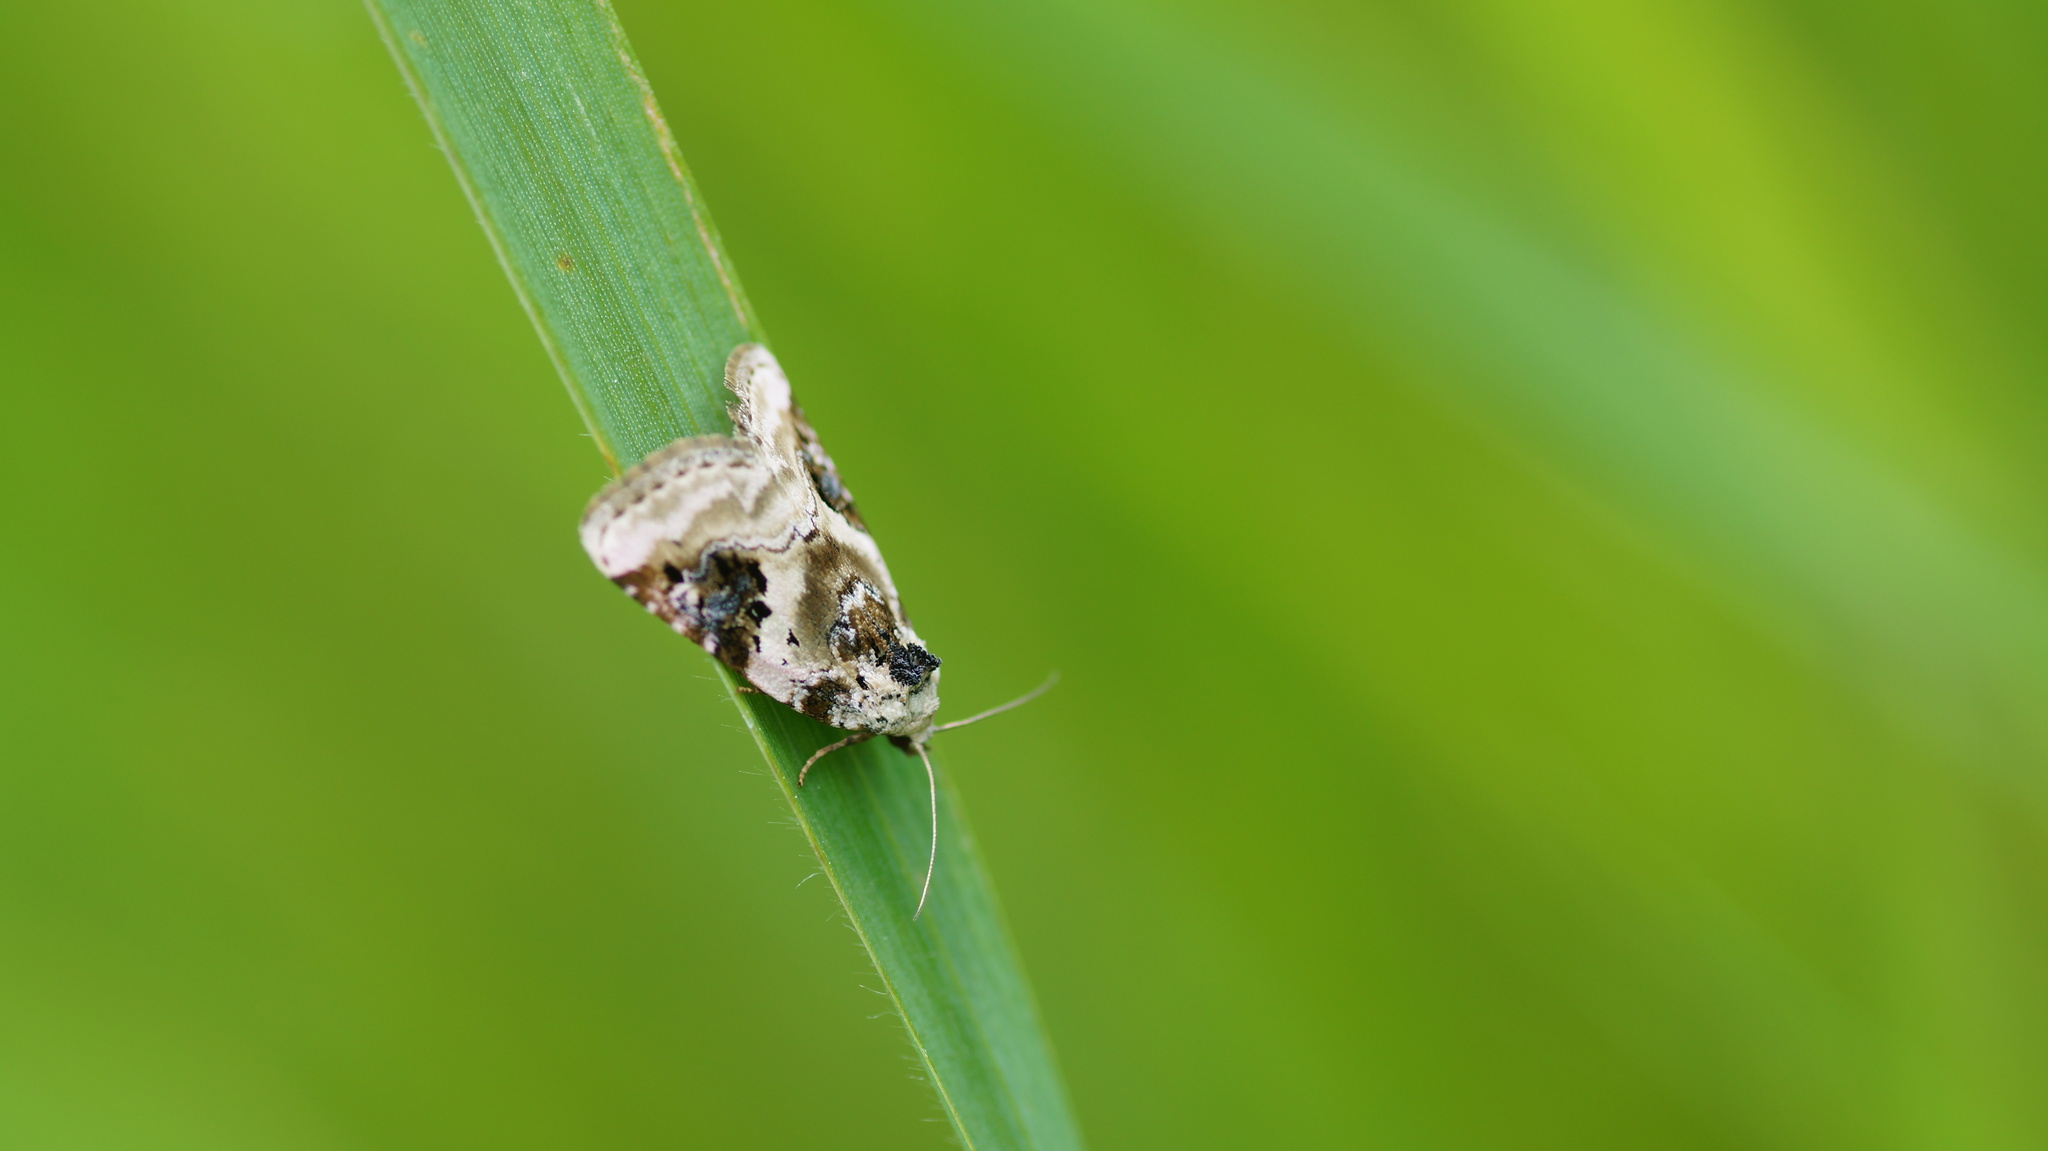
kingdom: Animalia
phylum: Arthropoda
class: Insecta
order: Lepidoptera
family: Noctuidae
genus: Pseudeustrotia
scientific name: Pseudeustrotia candidula
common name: Shining marbled
